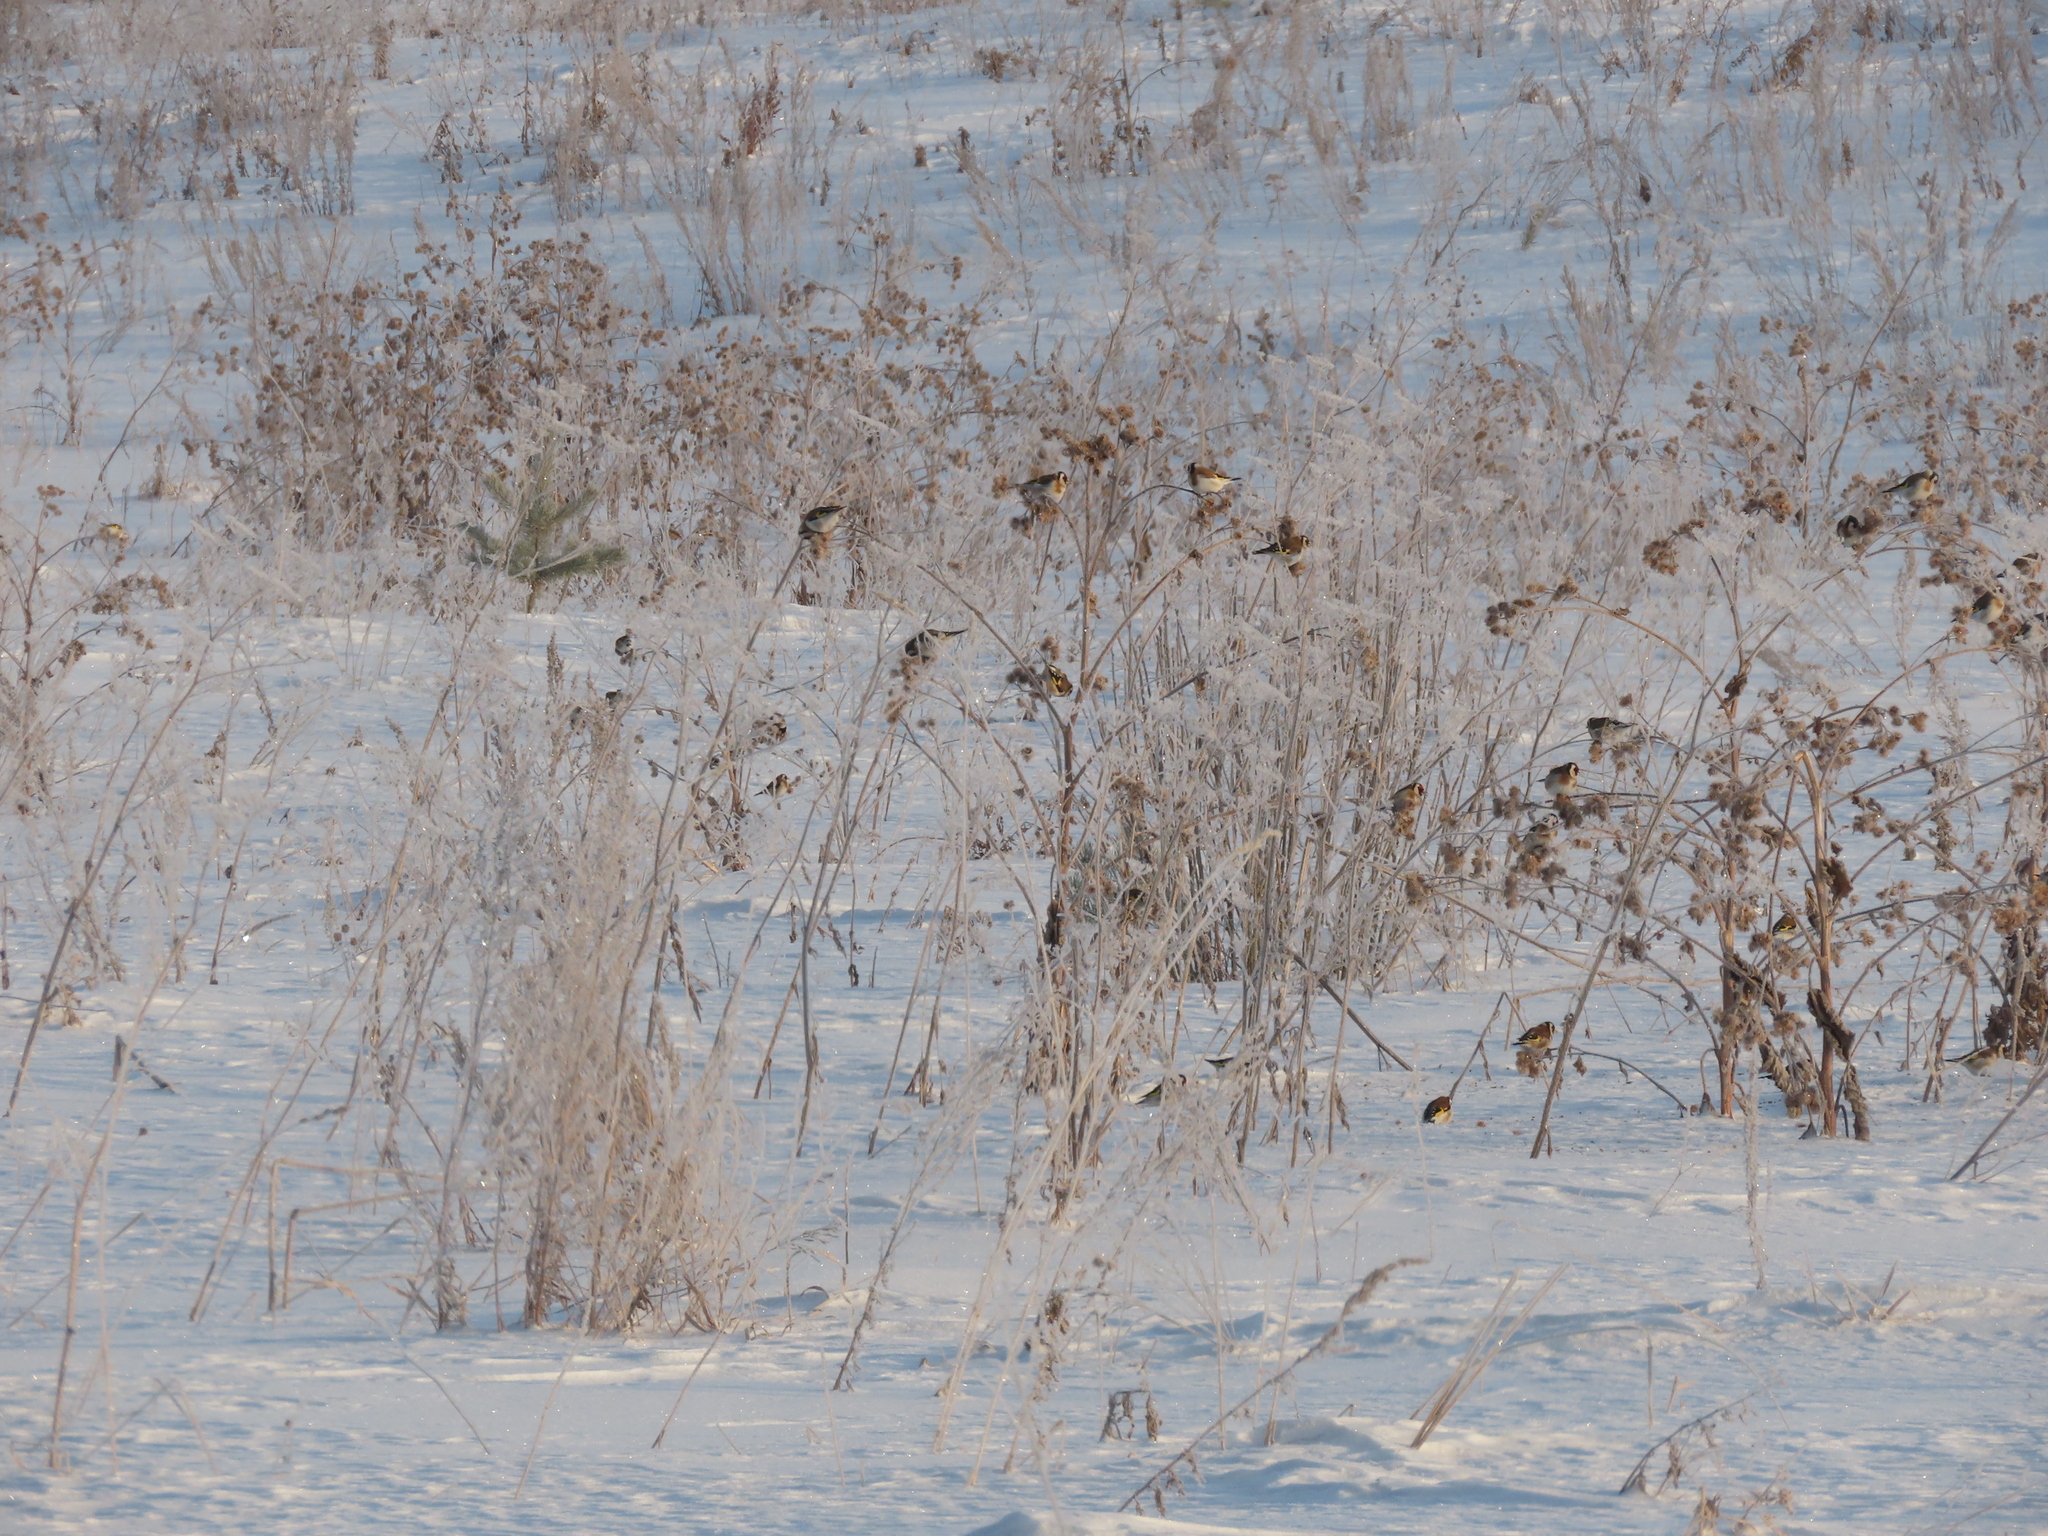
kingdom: Animalia
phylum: Chordata
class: Aves
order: Passeriformes
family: Fringillidae
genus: Carduelis
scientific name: Carduelis carduelis
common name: European goldfinch
